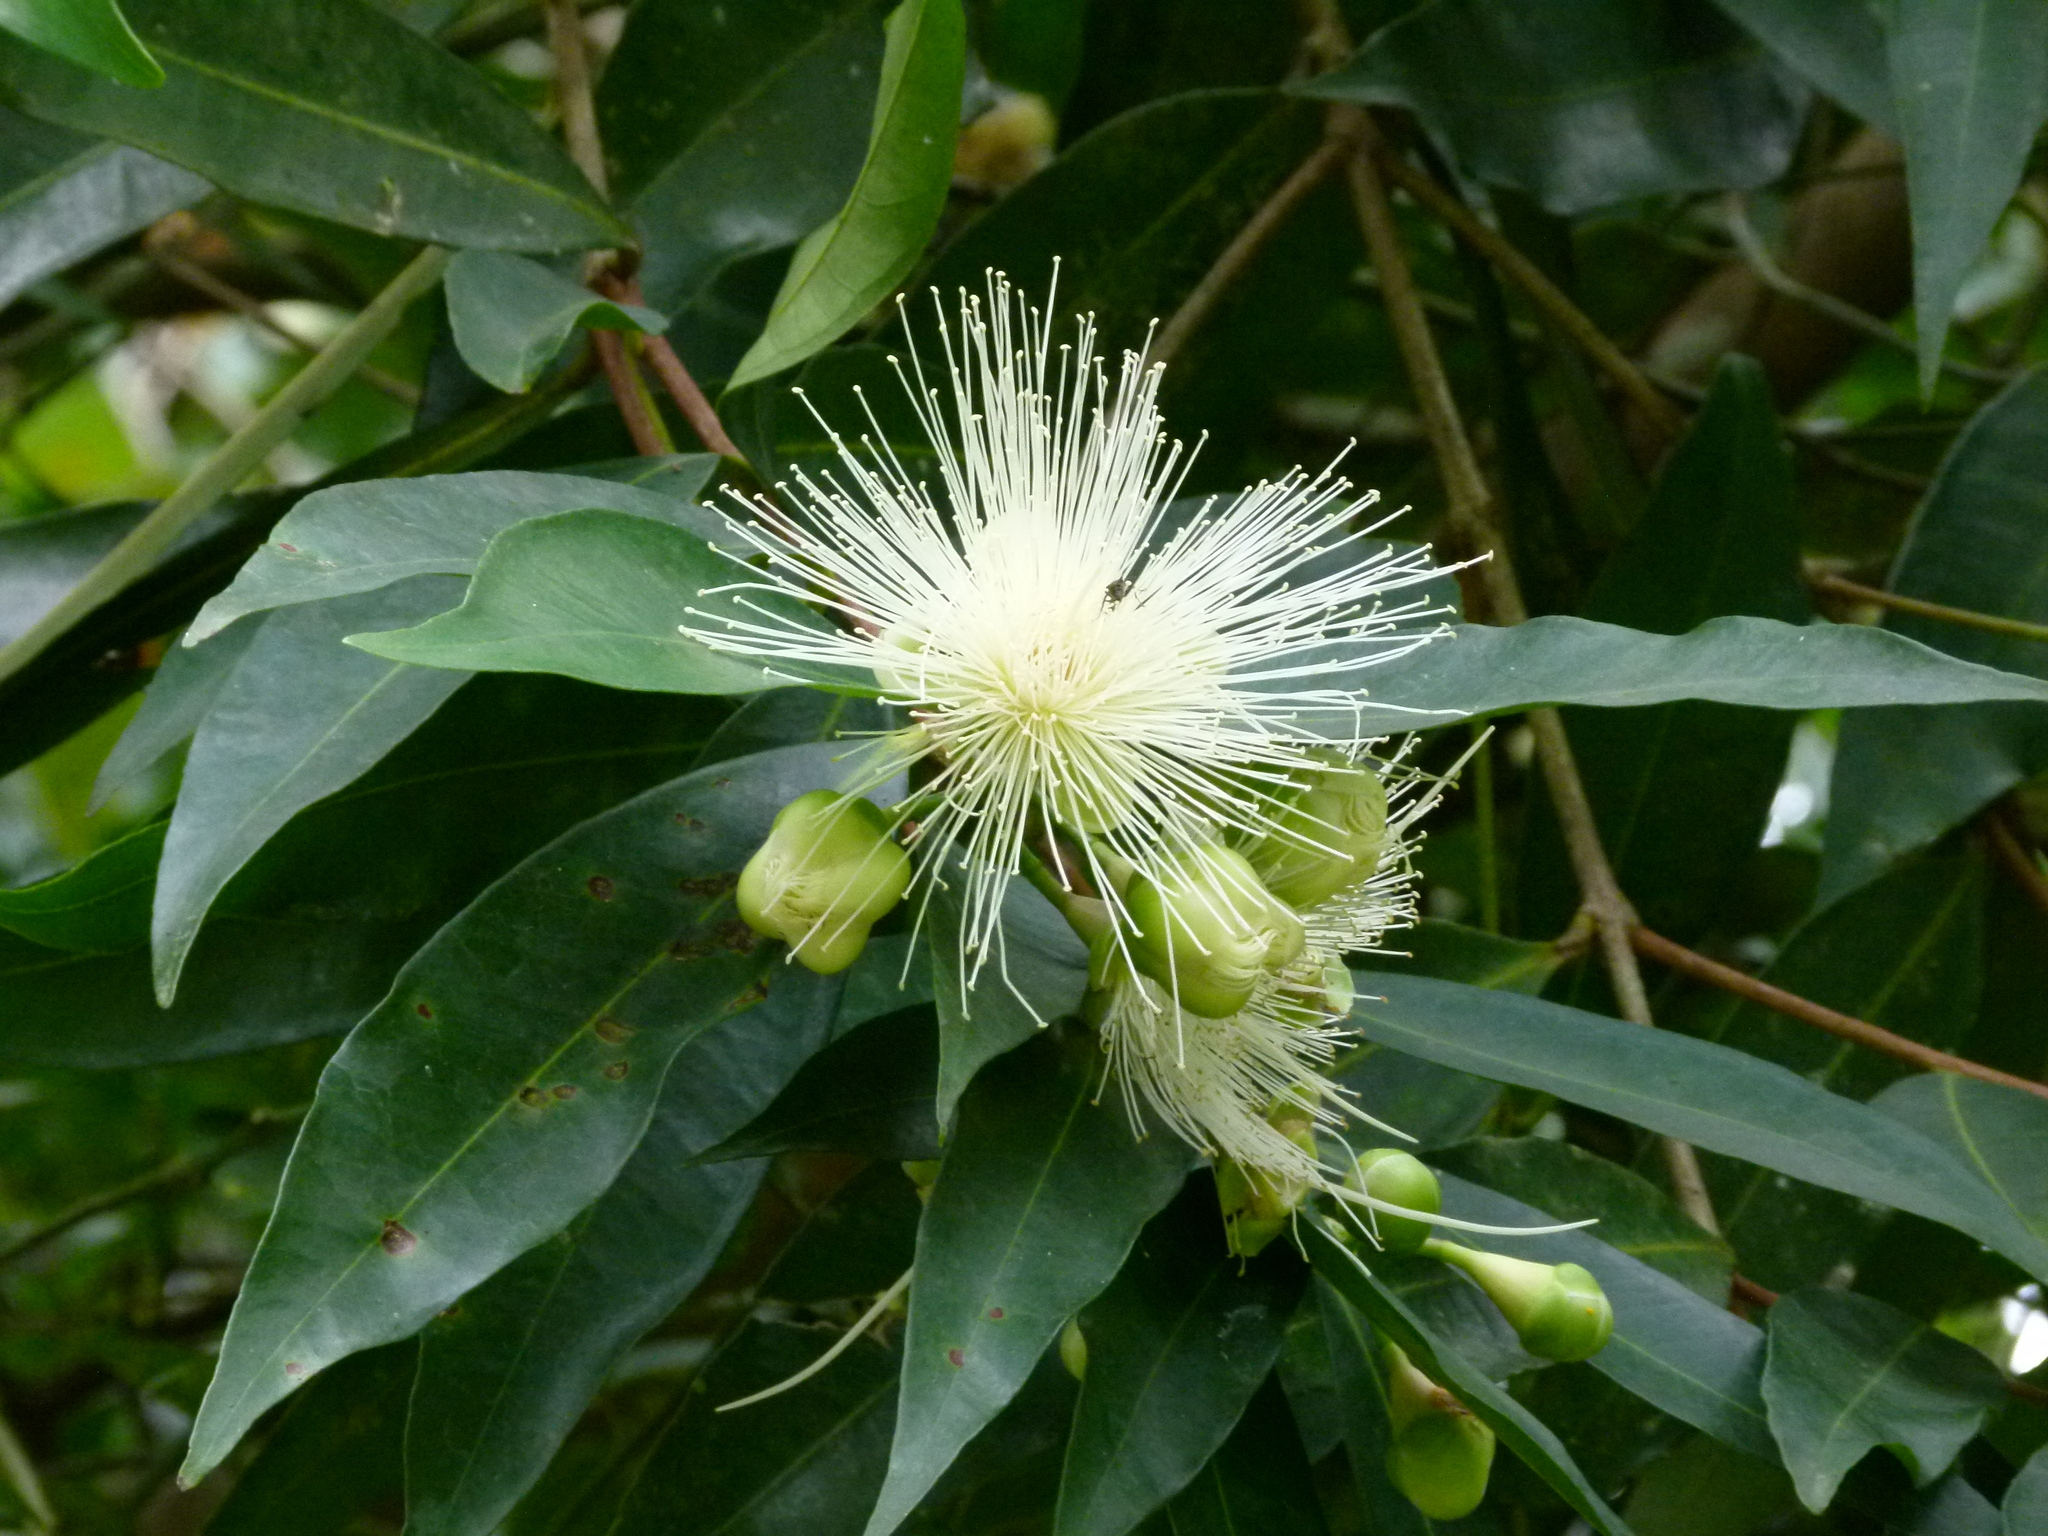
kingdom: Plantae
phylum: Tracheophyta
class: Magnoliopsida
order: Myrtales
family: Myrtaceae
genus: Syzygium
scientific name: Syzygium jambos
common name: Malabar plum
